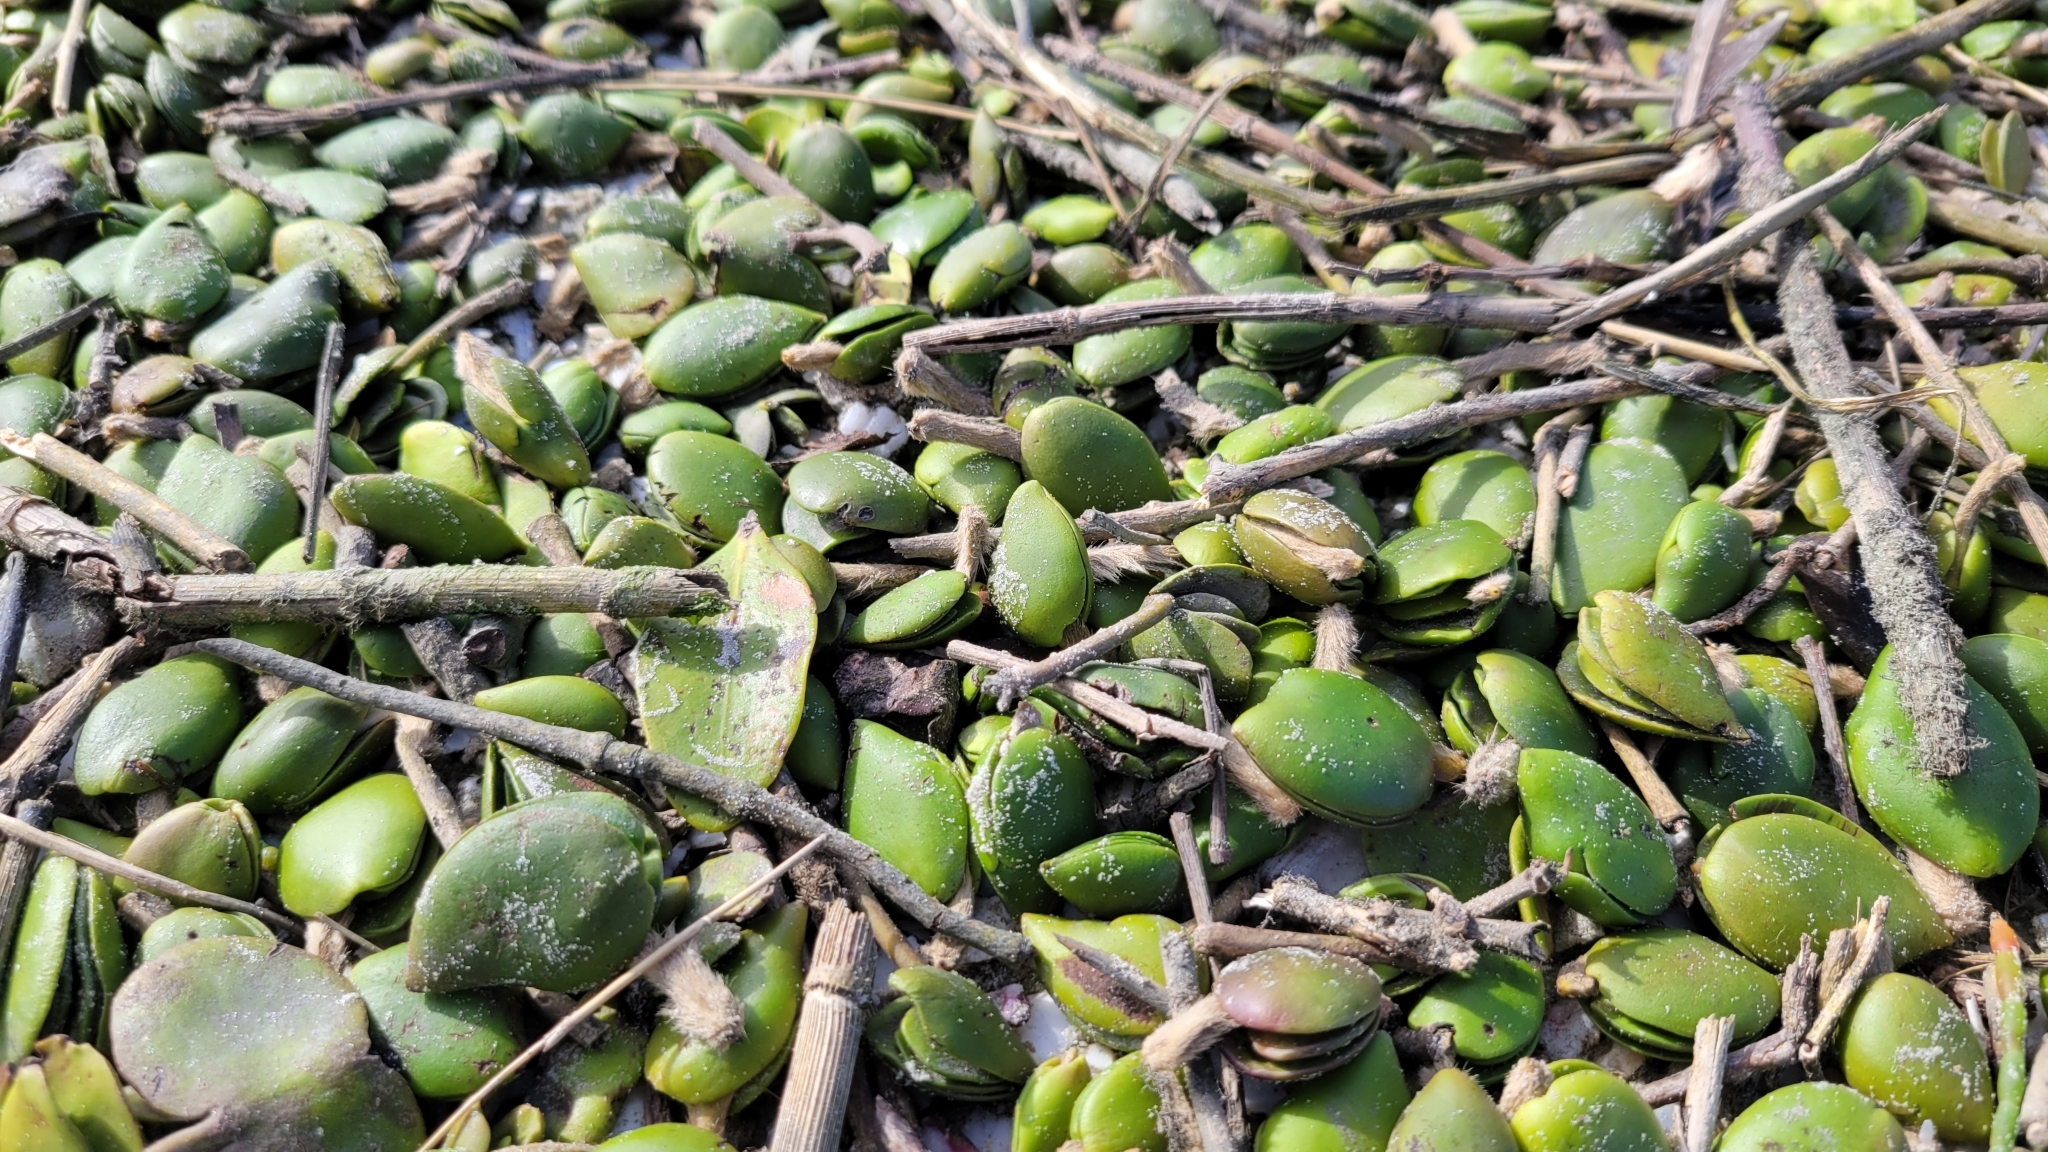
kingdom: Plantae
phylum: Tracheophyta
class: Magnoliopsida
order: Lamiales
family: Acanthaceae
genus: Avicennia
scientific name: Avicennia germinans
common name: Black mangrove
